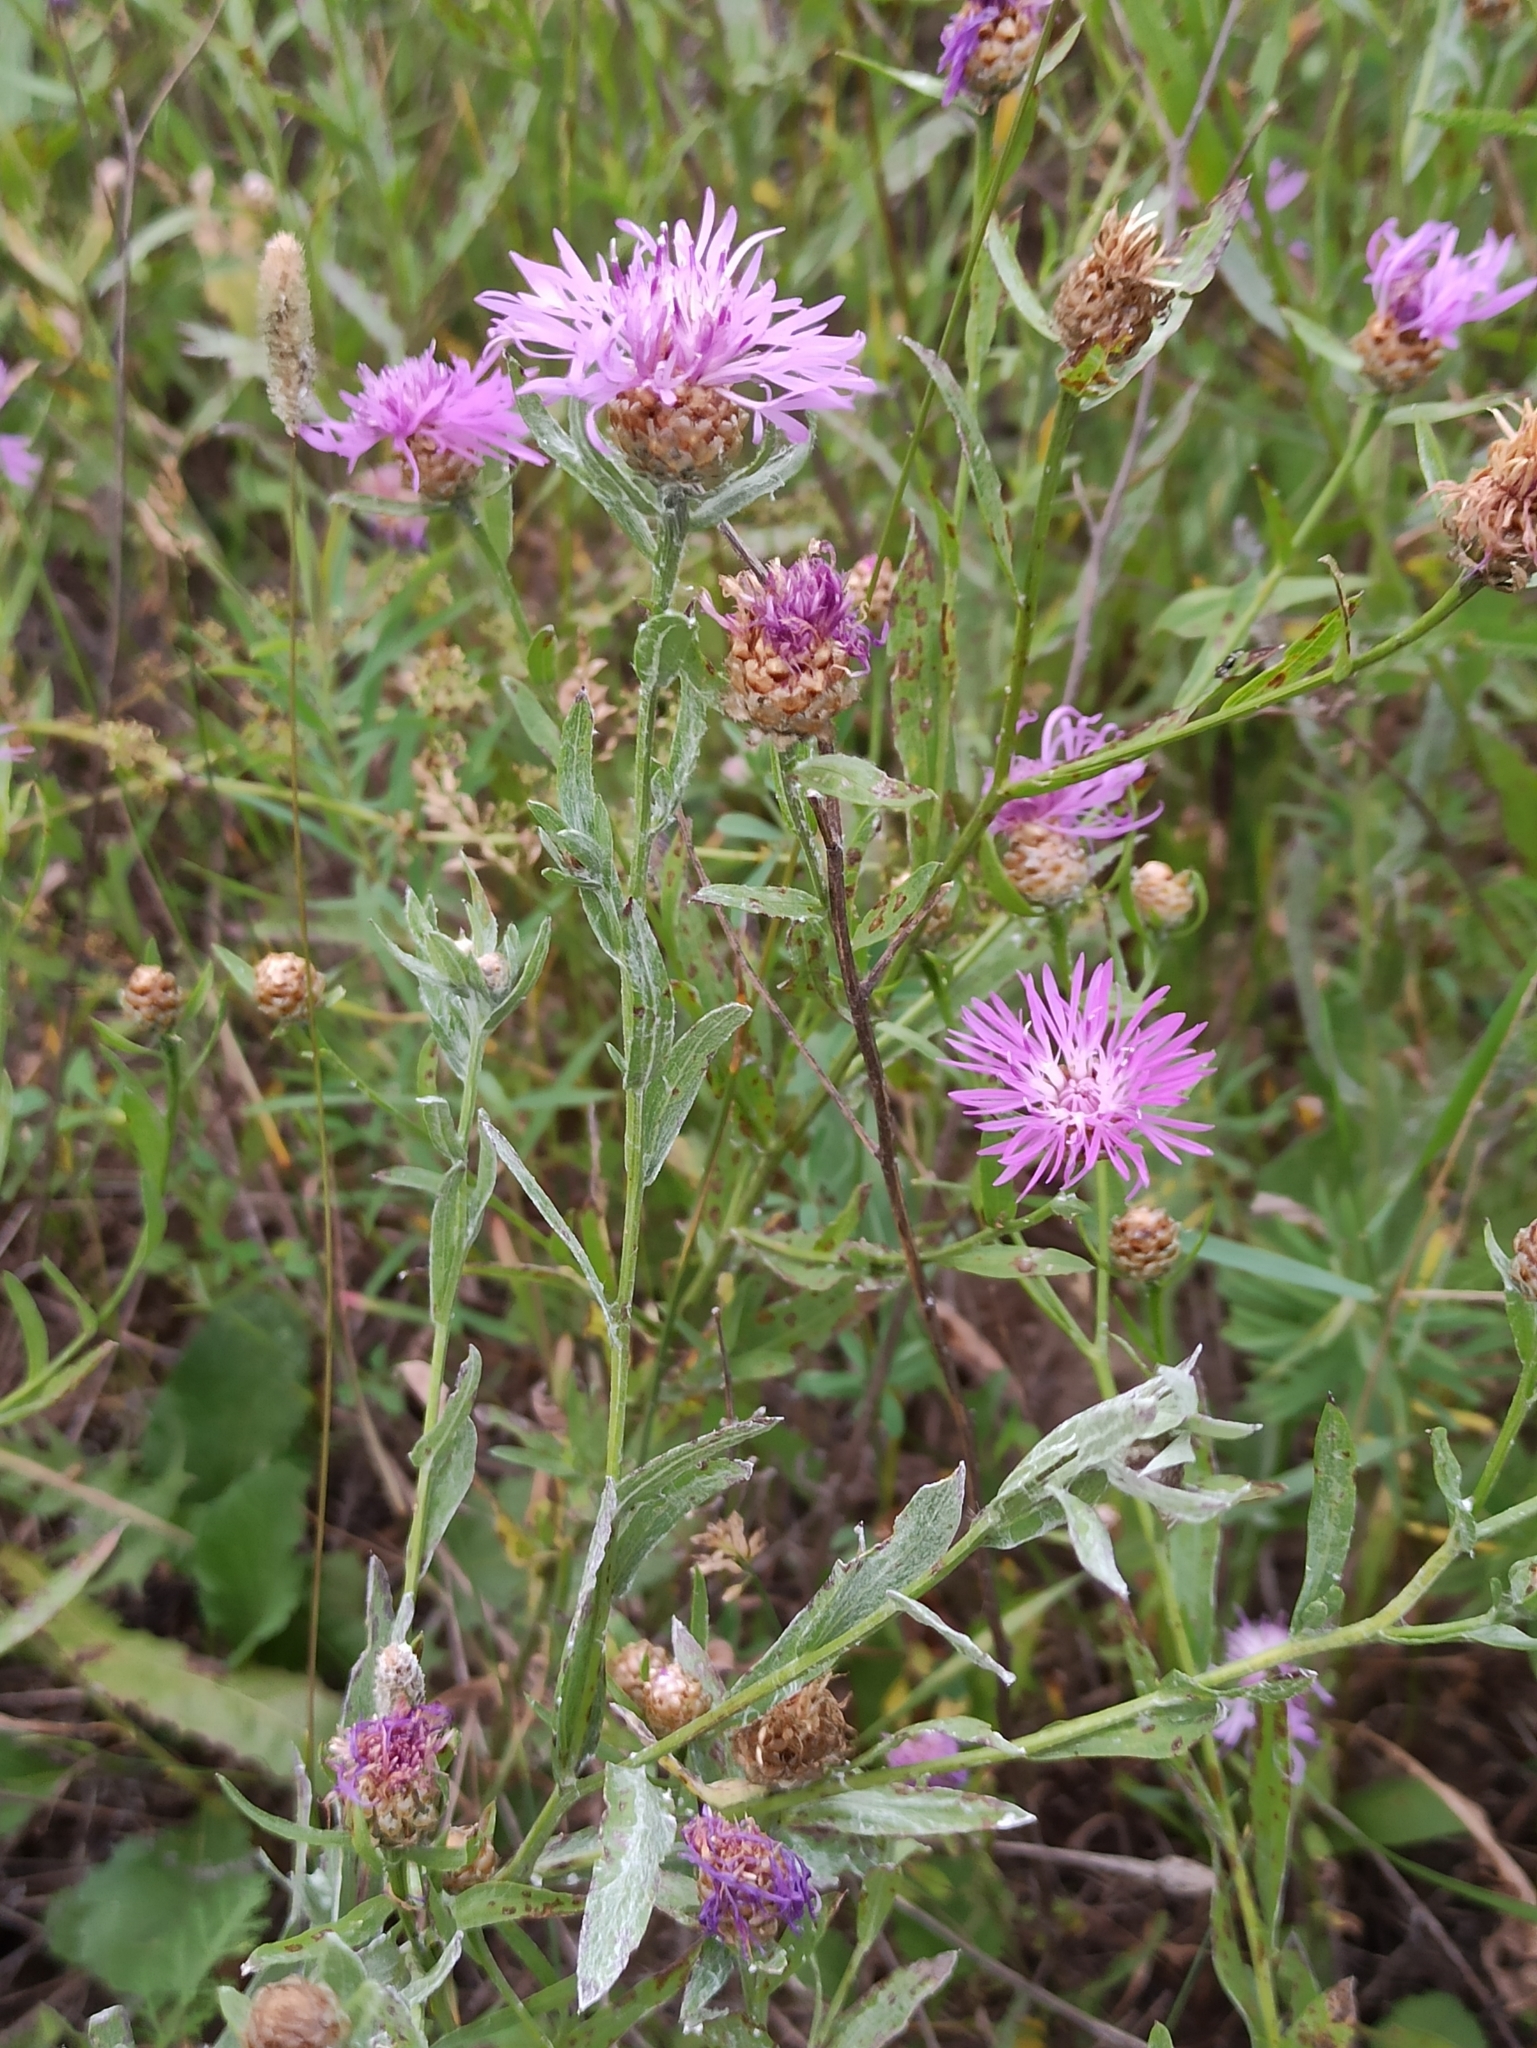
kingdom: Plantae
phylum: Tracheophyta
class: Magnoliopsida
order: Asterales
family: Asteraceae
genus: Centaurea
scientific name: Centaurea jacea
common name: Brown knapweed
